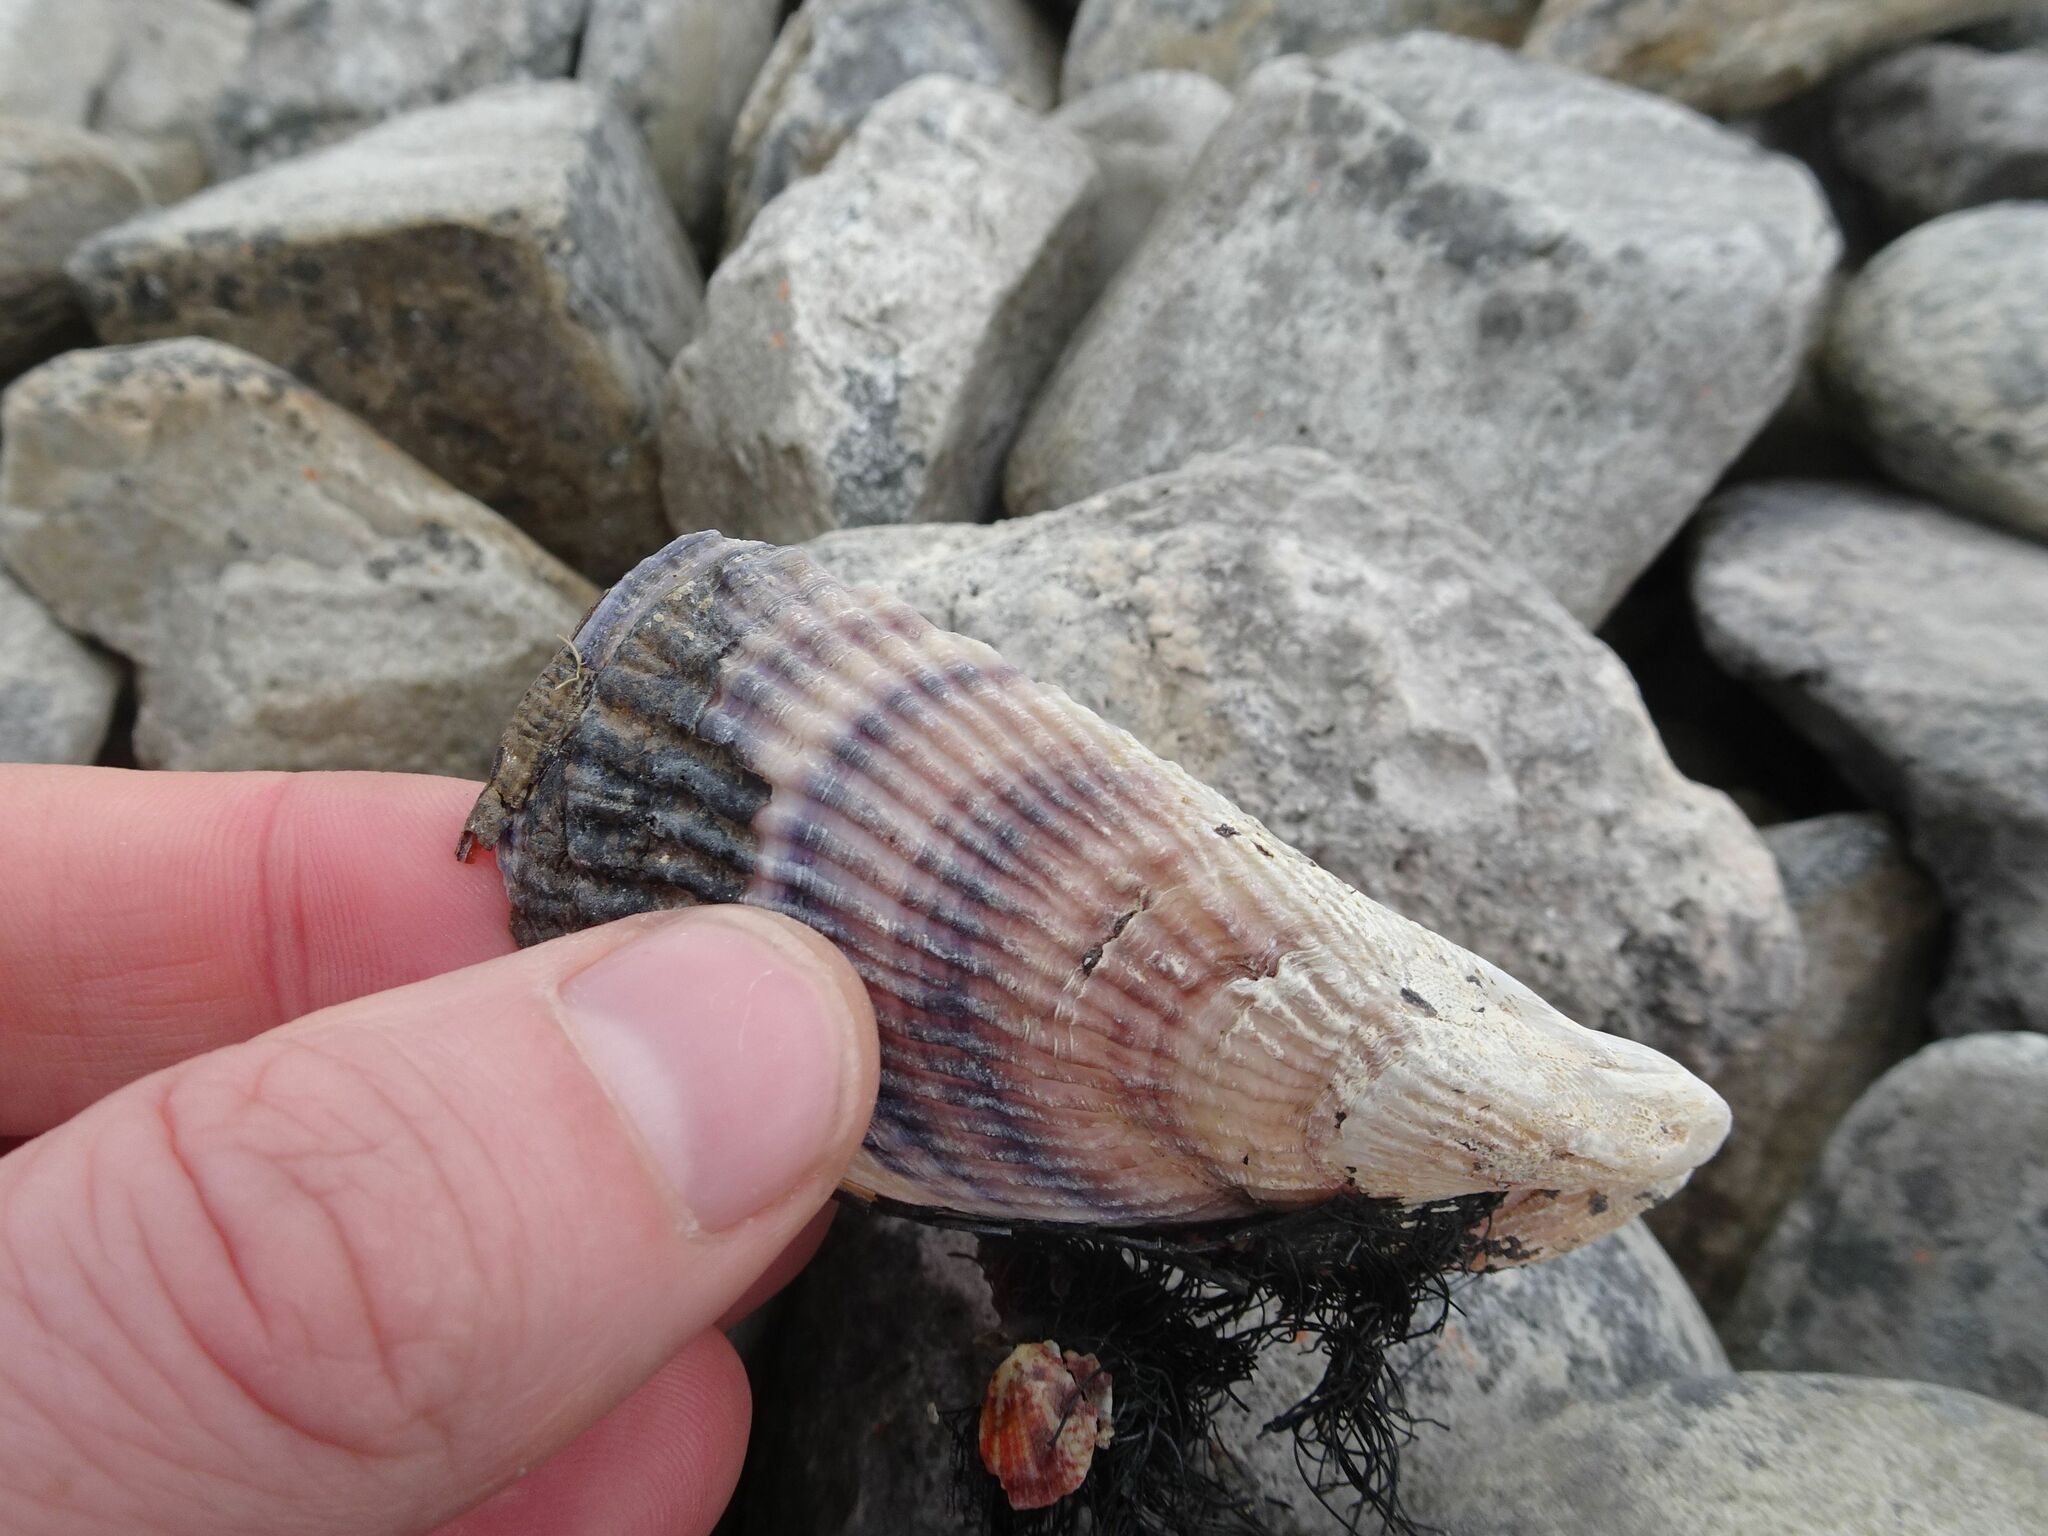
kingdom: Animalia
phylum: Mollusca
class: Bivalvia
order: Mytilida
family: Mytilidae
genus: Aulacomya
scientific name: Aulacomya atra
